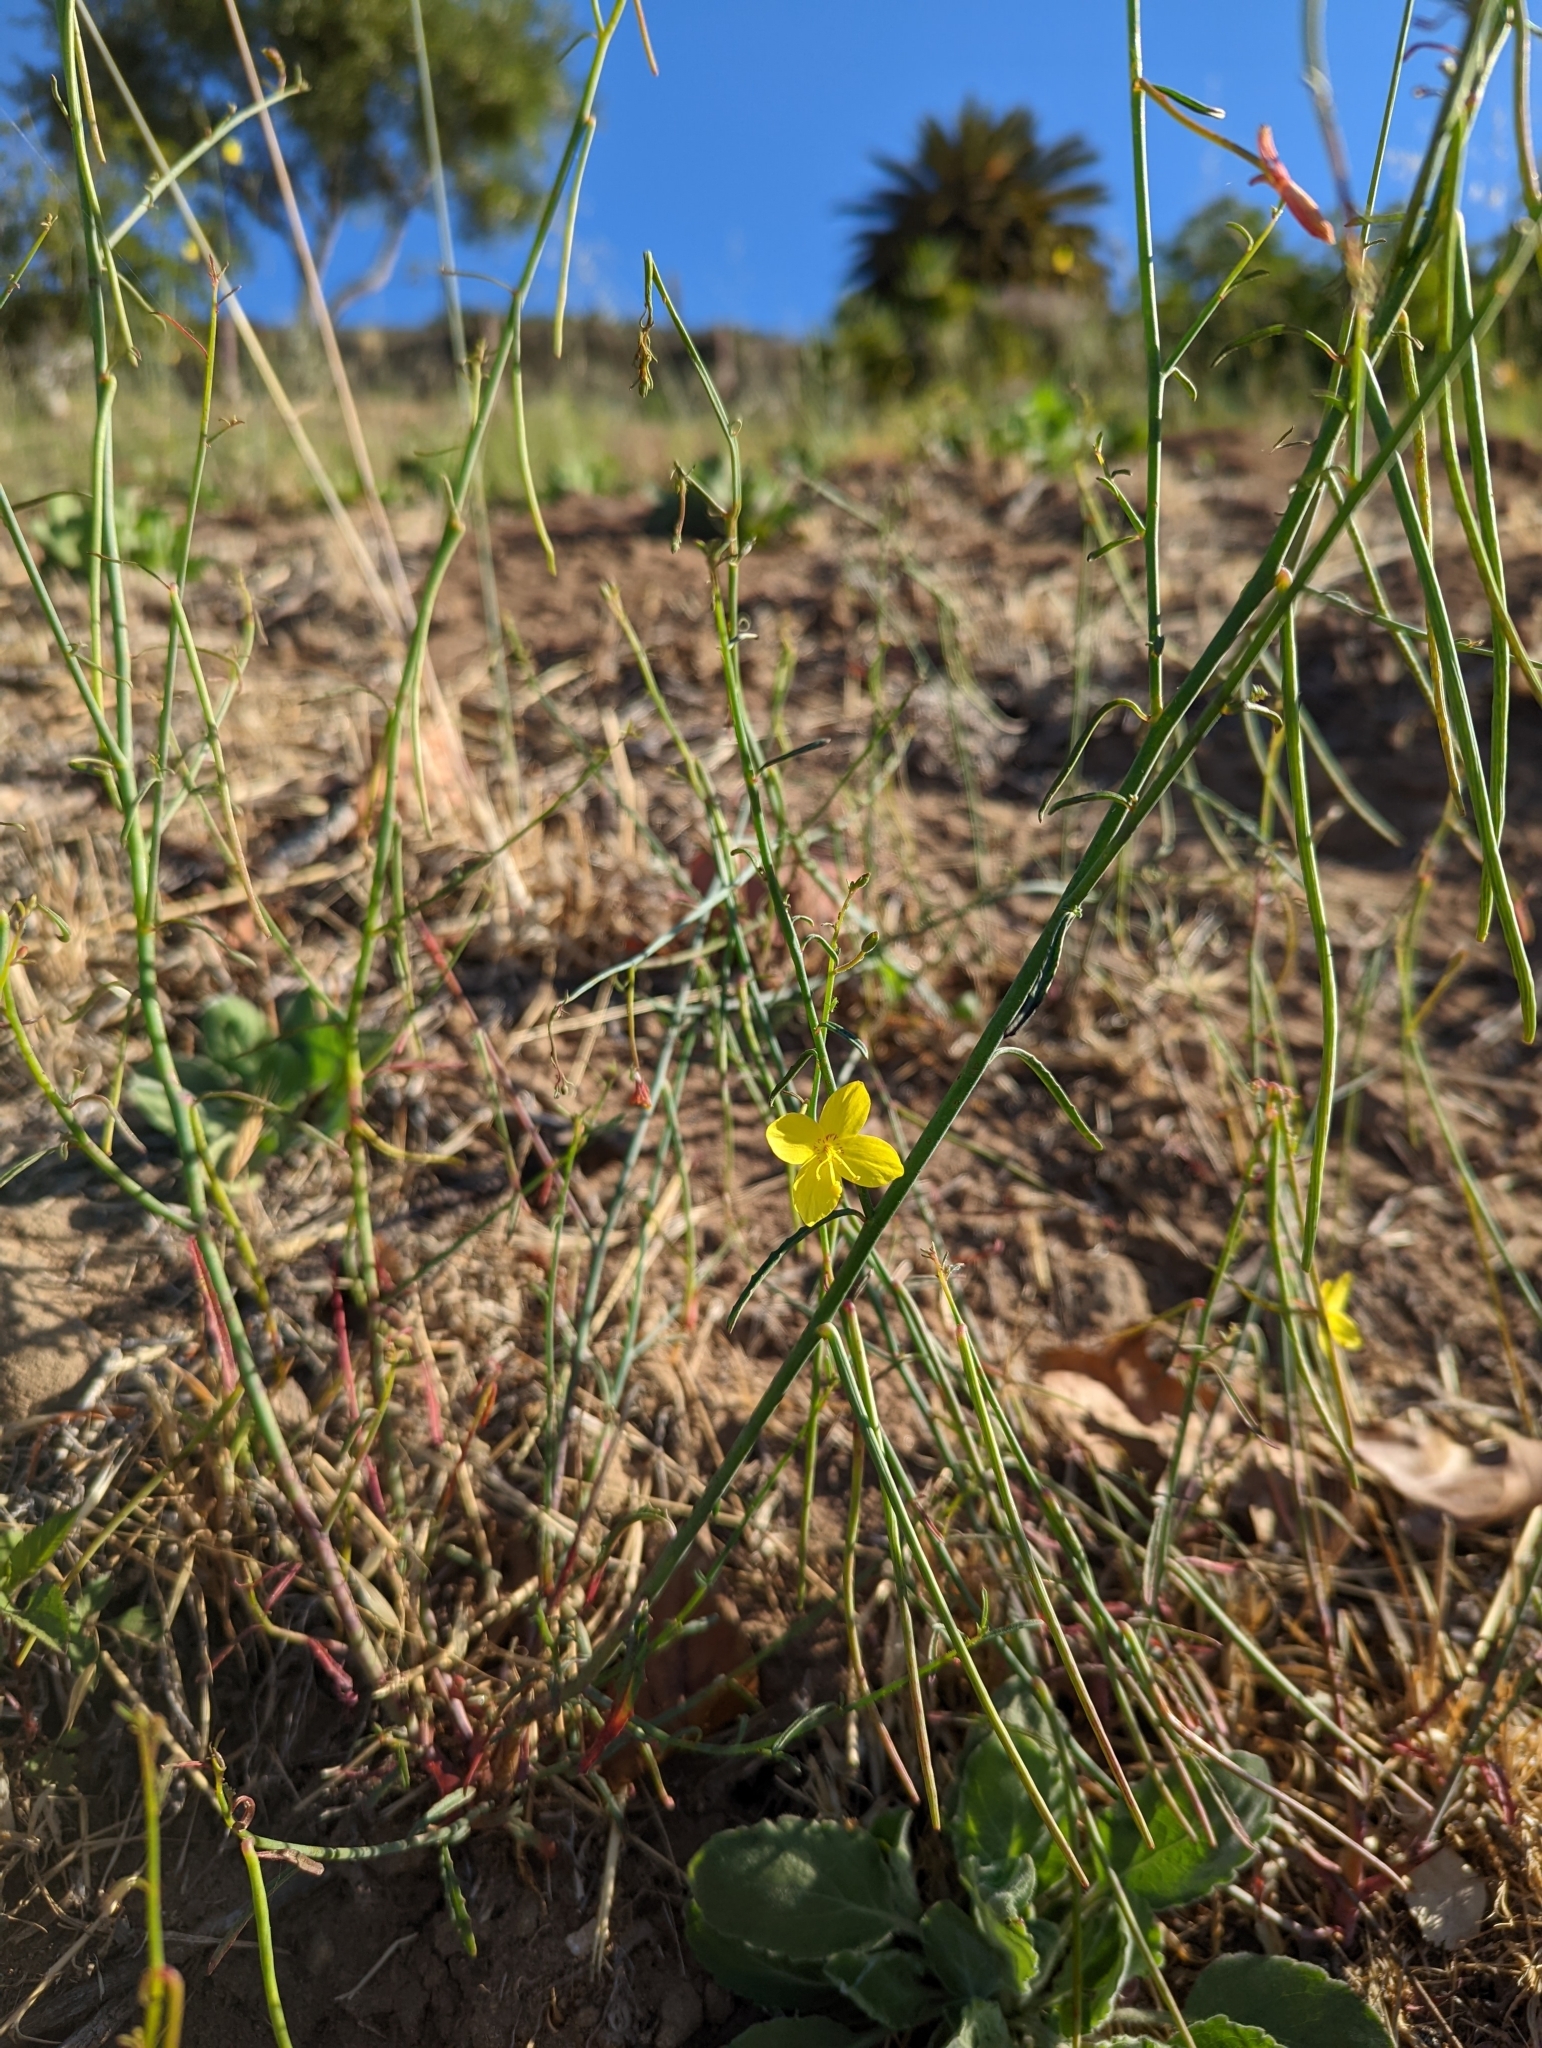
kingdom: Plantae
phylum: Tracheophyta
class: Magnoliopsida
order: Myrtales
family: Onagraceae
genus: Eulobus
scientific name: Eulobus californicus
